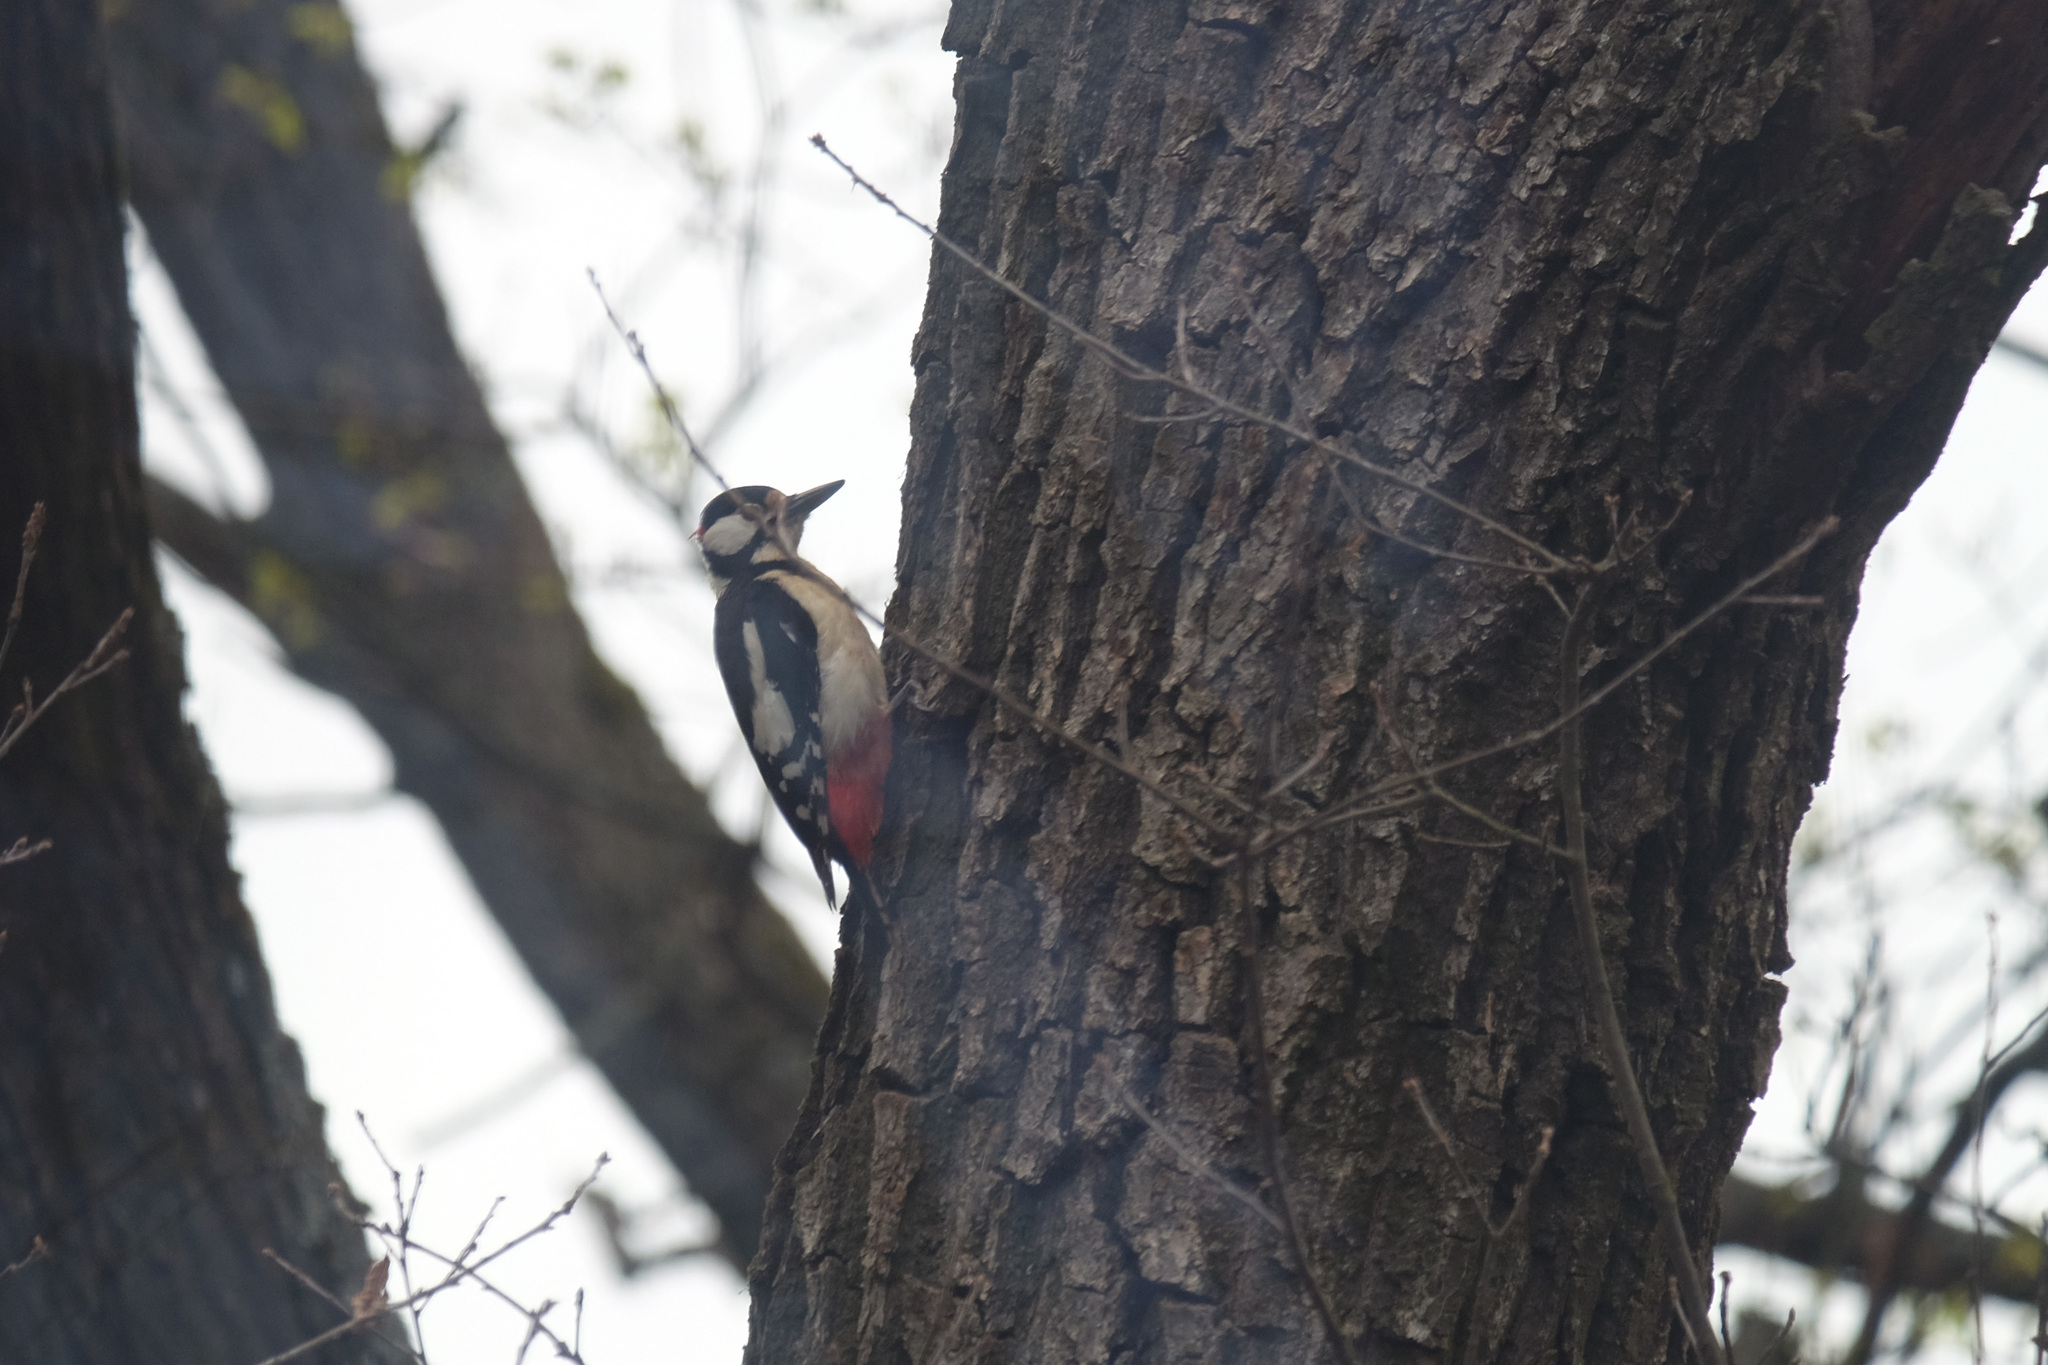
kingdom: Animalia
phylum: Chordata
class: Aves
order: Piciformes
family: Picidae
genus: Dendrocopos
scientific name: Dendrocopos major
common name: Great spotted woodpecker
